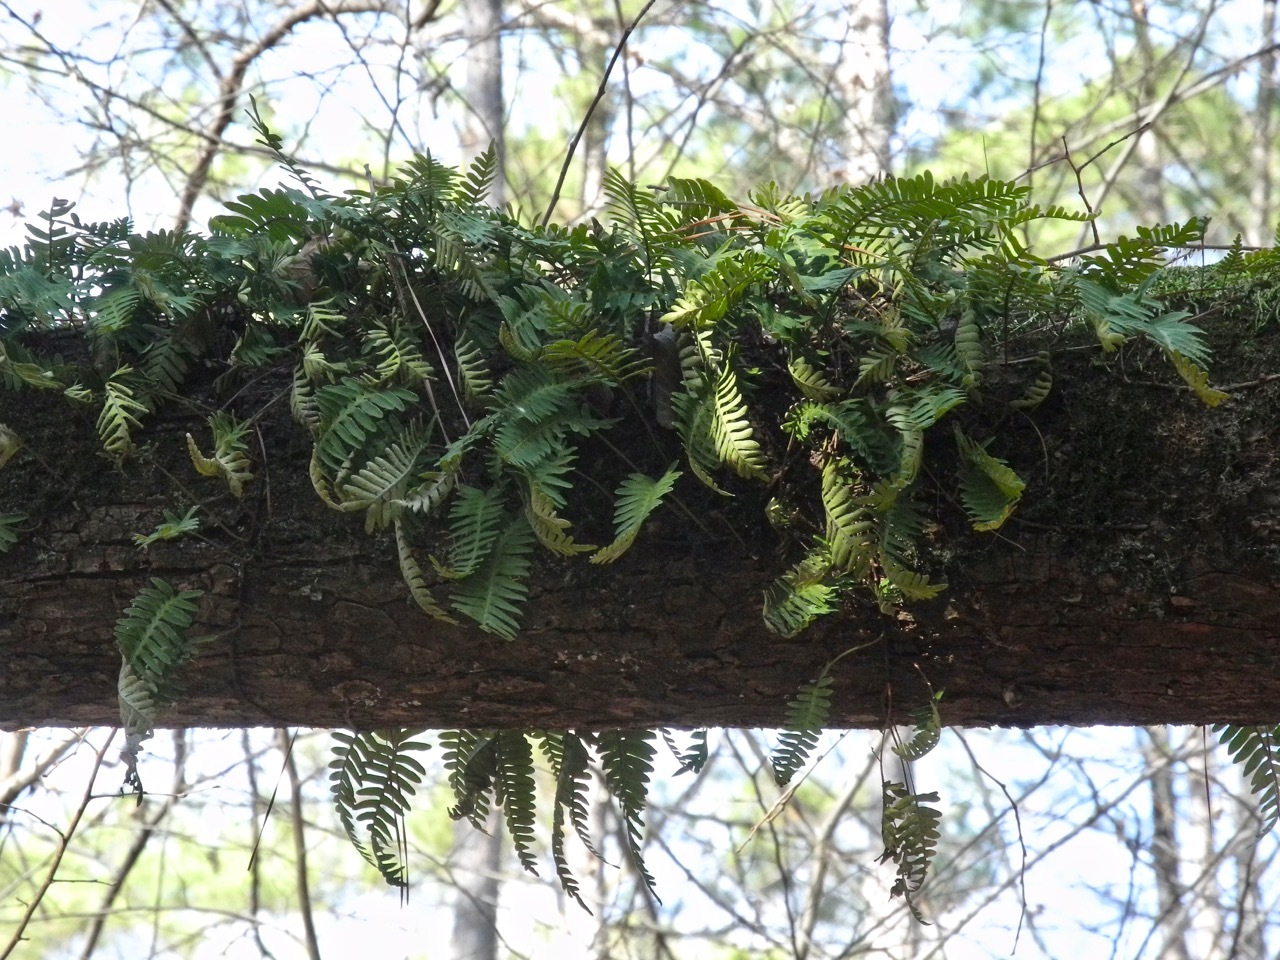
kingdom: Plantae
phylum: Tracheophyta
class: Polypodiopsida
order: Polypodiales
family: Polypodiaceae
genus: Pleopeltis
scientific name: Pleopeltis michauxiana
